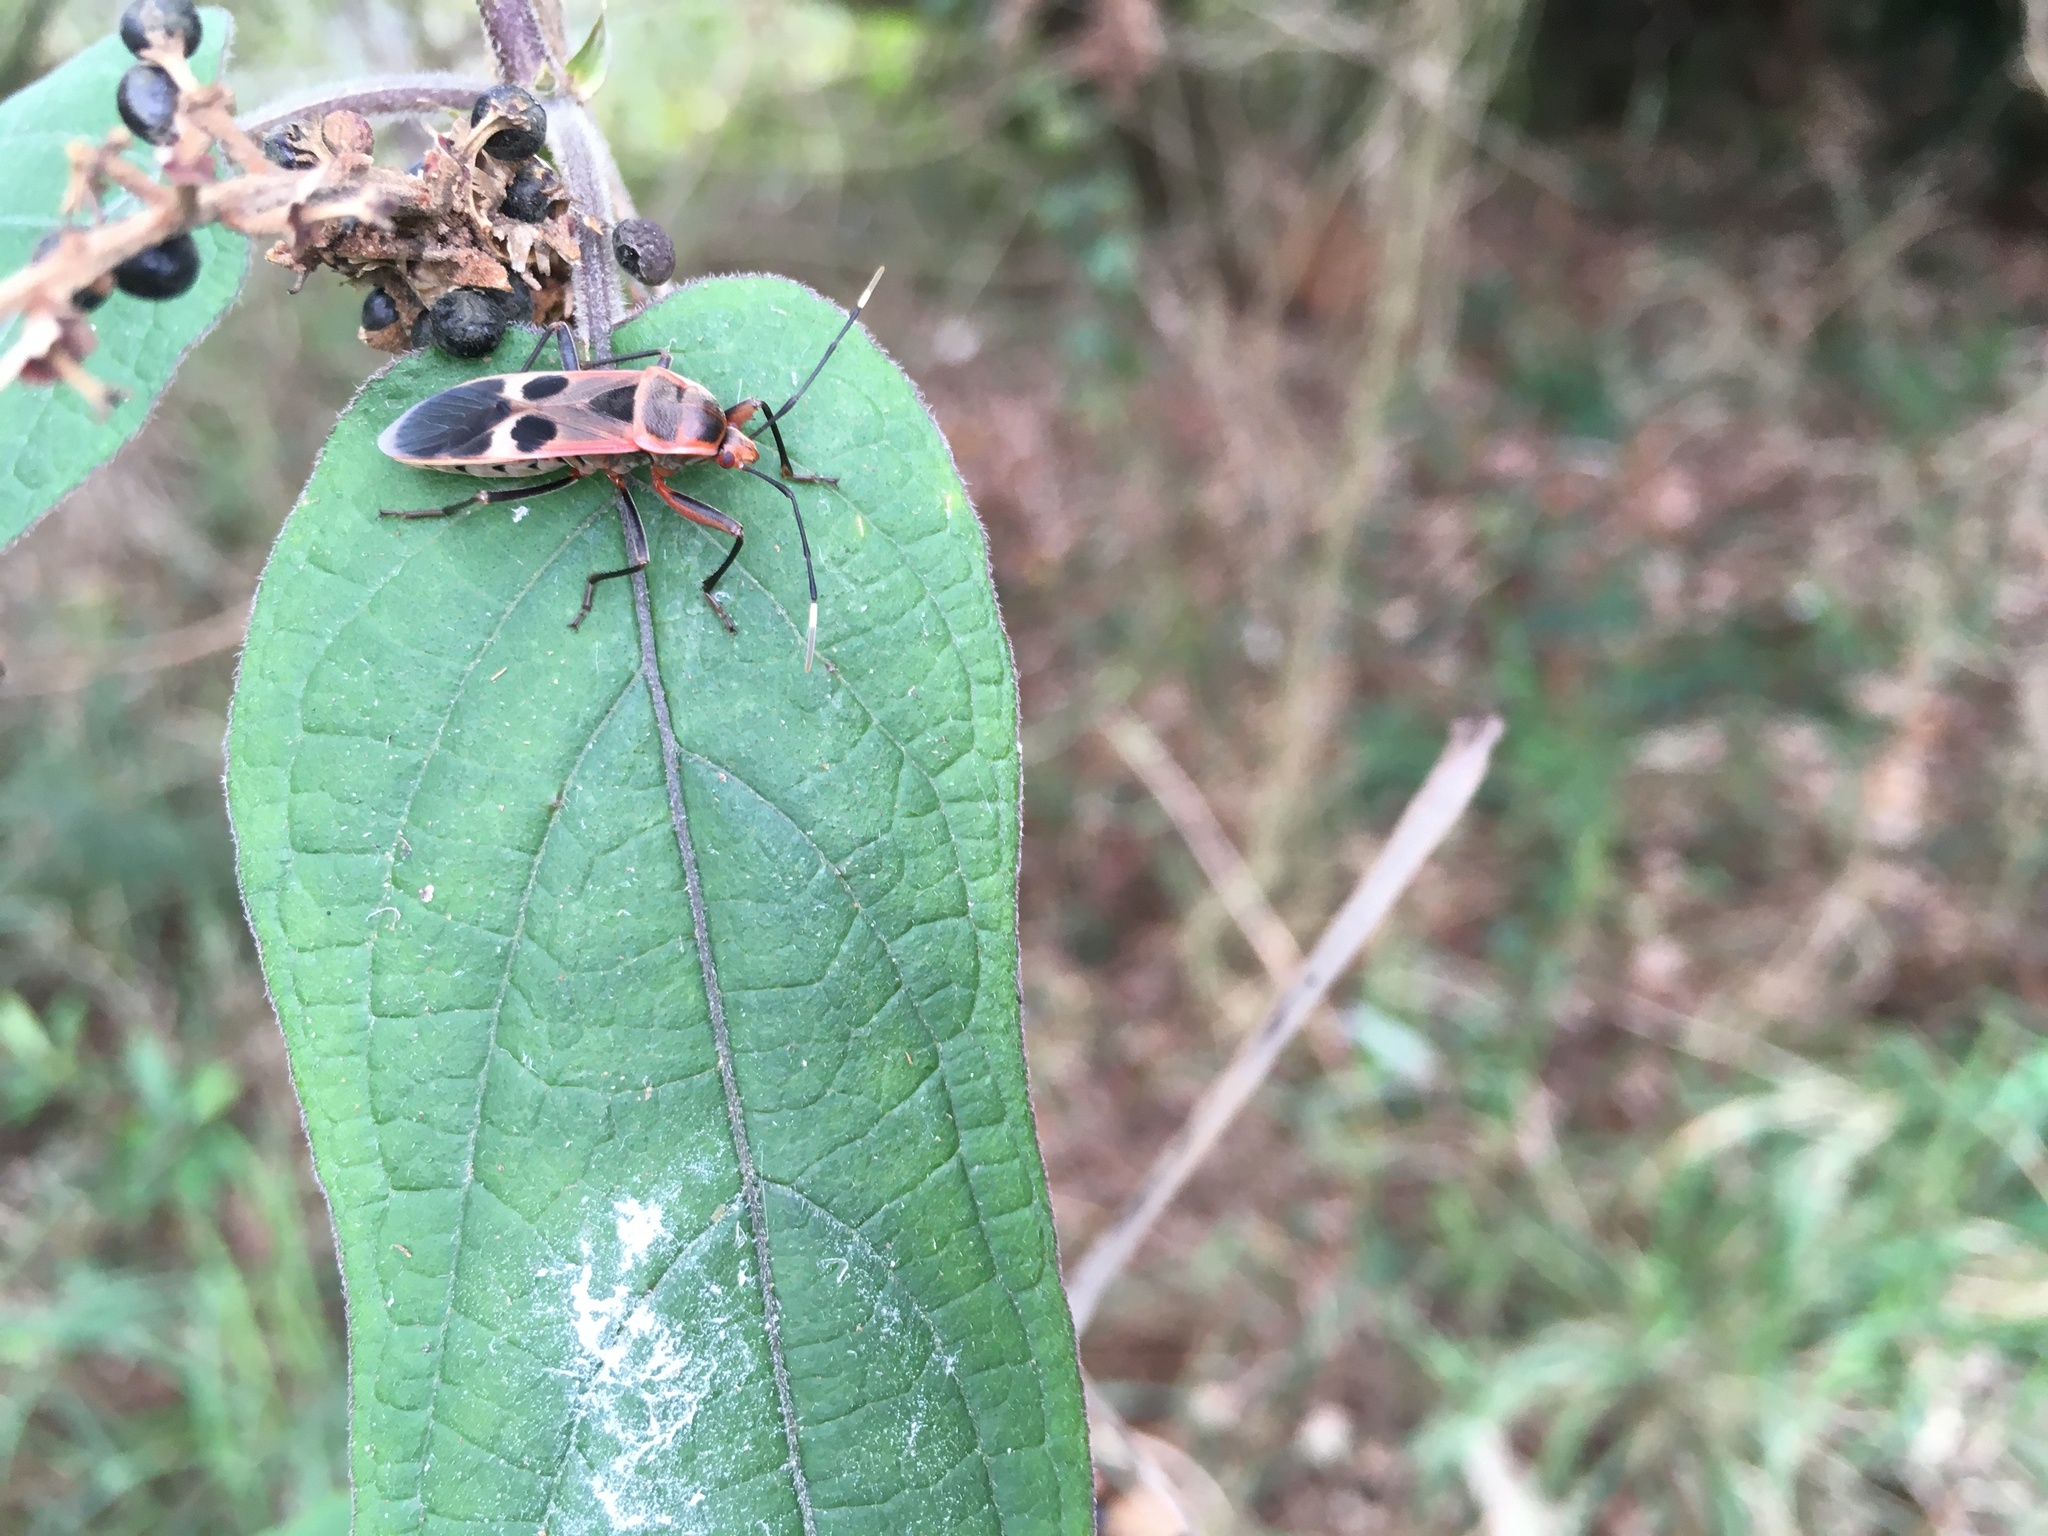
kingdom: Animalia
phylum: Arthropoda
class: Insecta
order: Hemiptera
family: Largidae
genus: Physopelta
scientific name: Physopelta gutta
